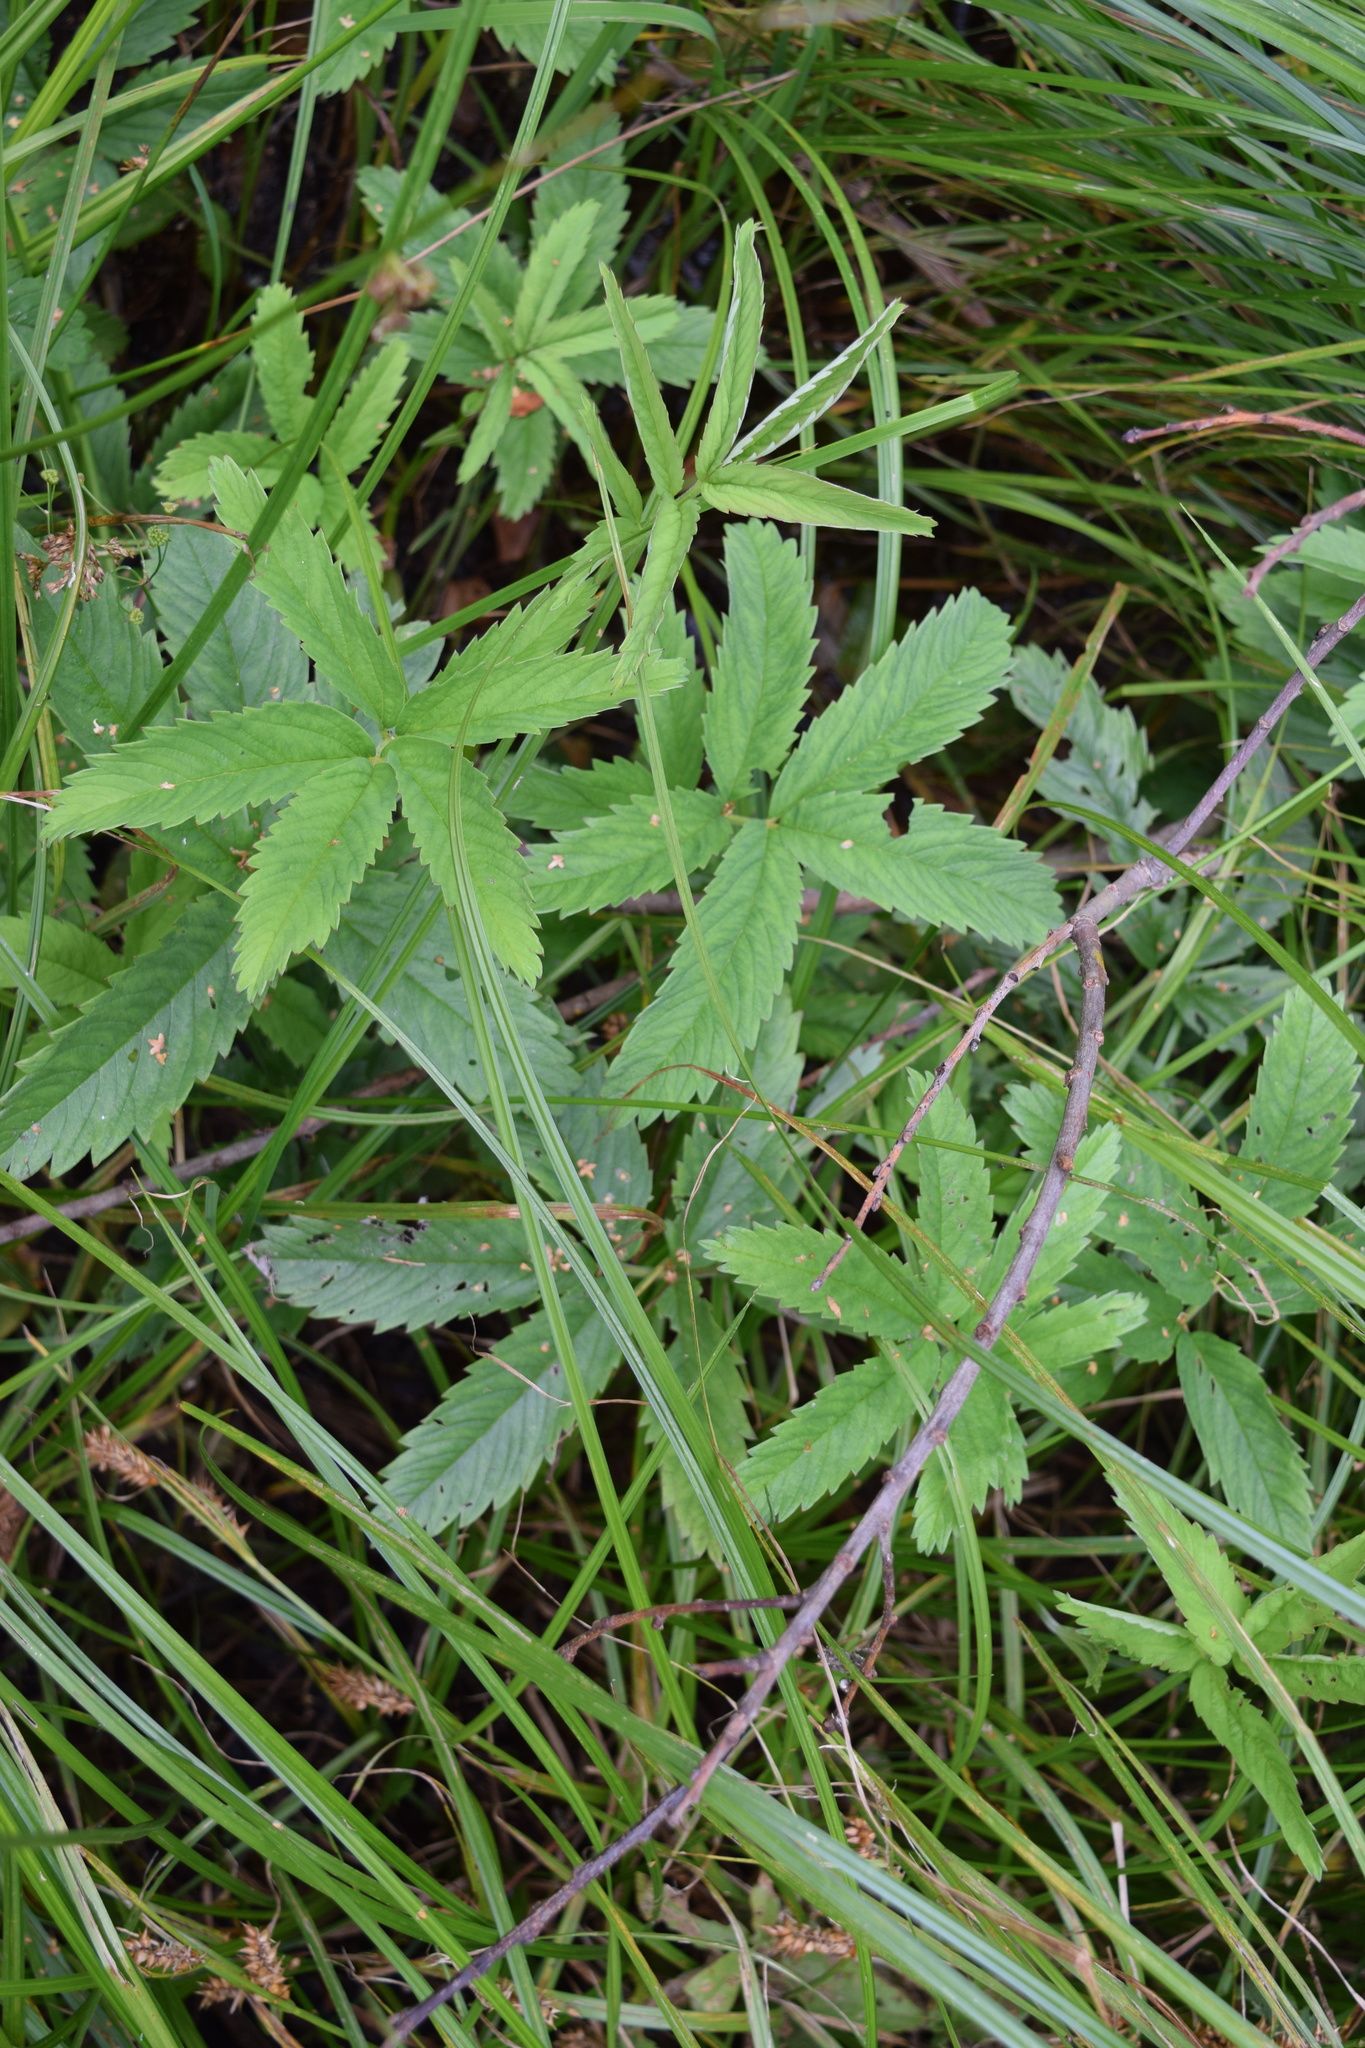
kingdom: Plantae
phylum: Tracheophyta
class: Magnoliopsida
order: Rosales
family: Rosaceae
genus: Comarum
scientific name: Comarum palustre
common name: Marsh cinquefoil
